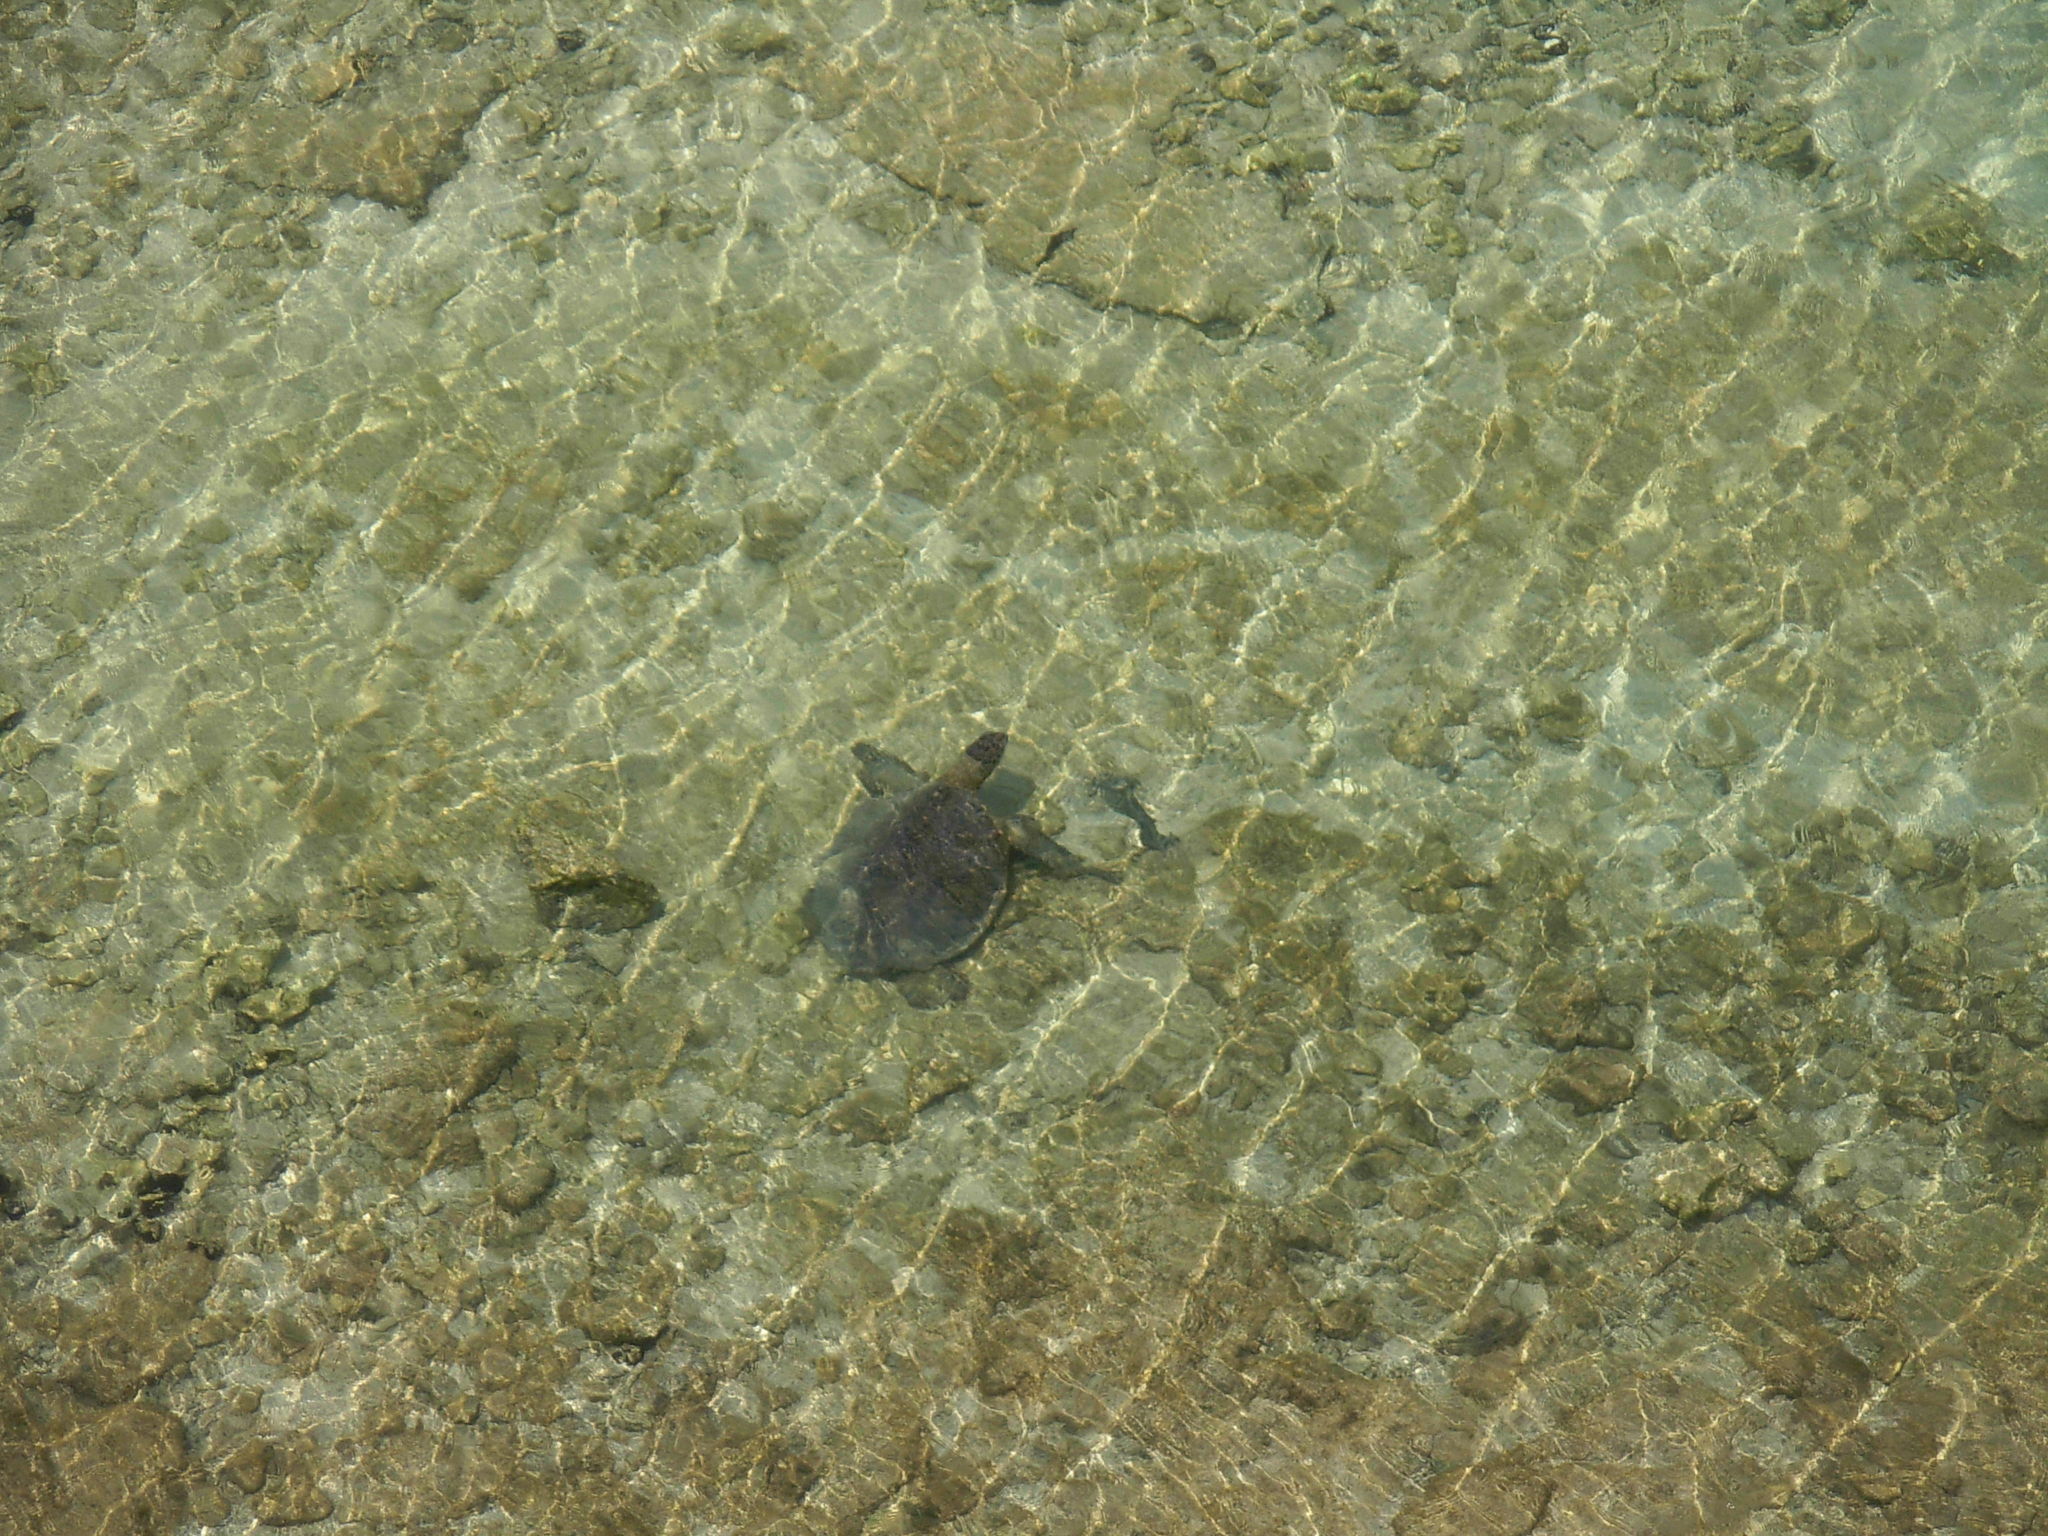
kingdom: Animalia
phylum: Chordata
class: Testudines
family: Cheloniidae
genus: Chelonia
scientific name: Chelonia mydas
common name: Green turtle
